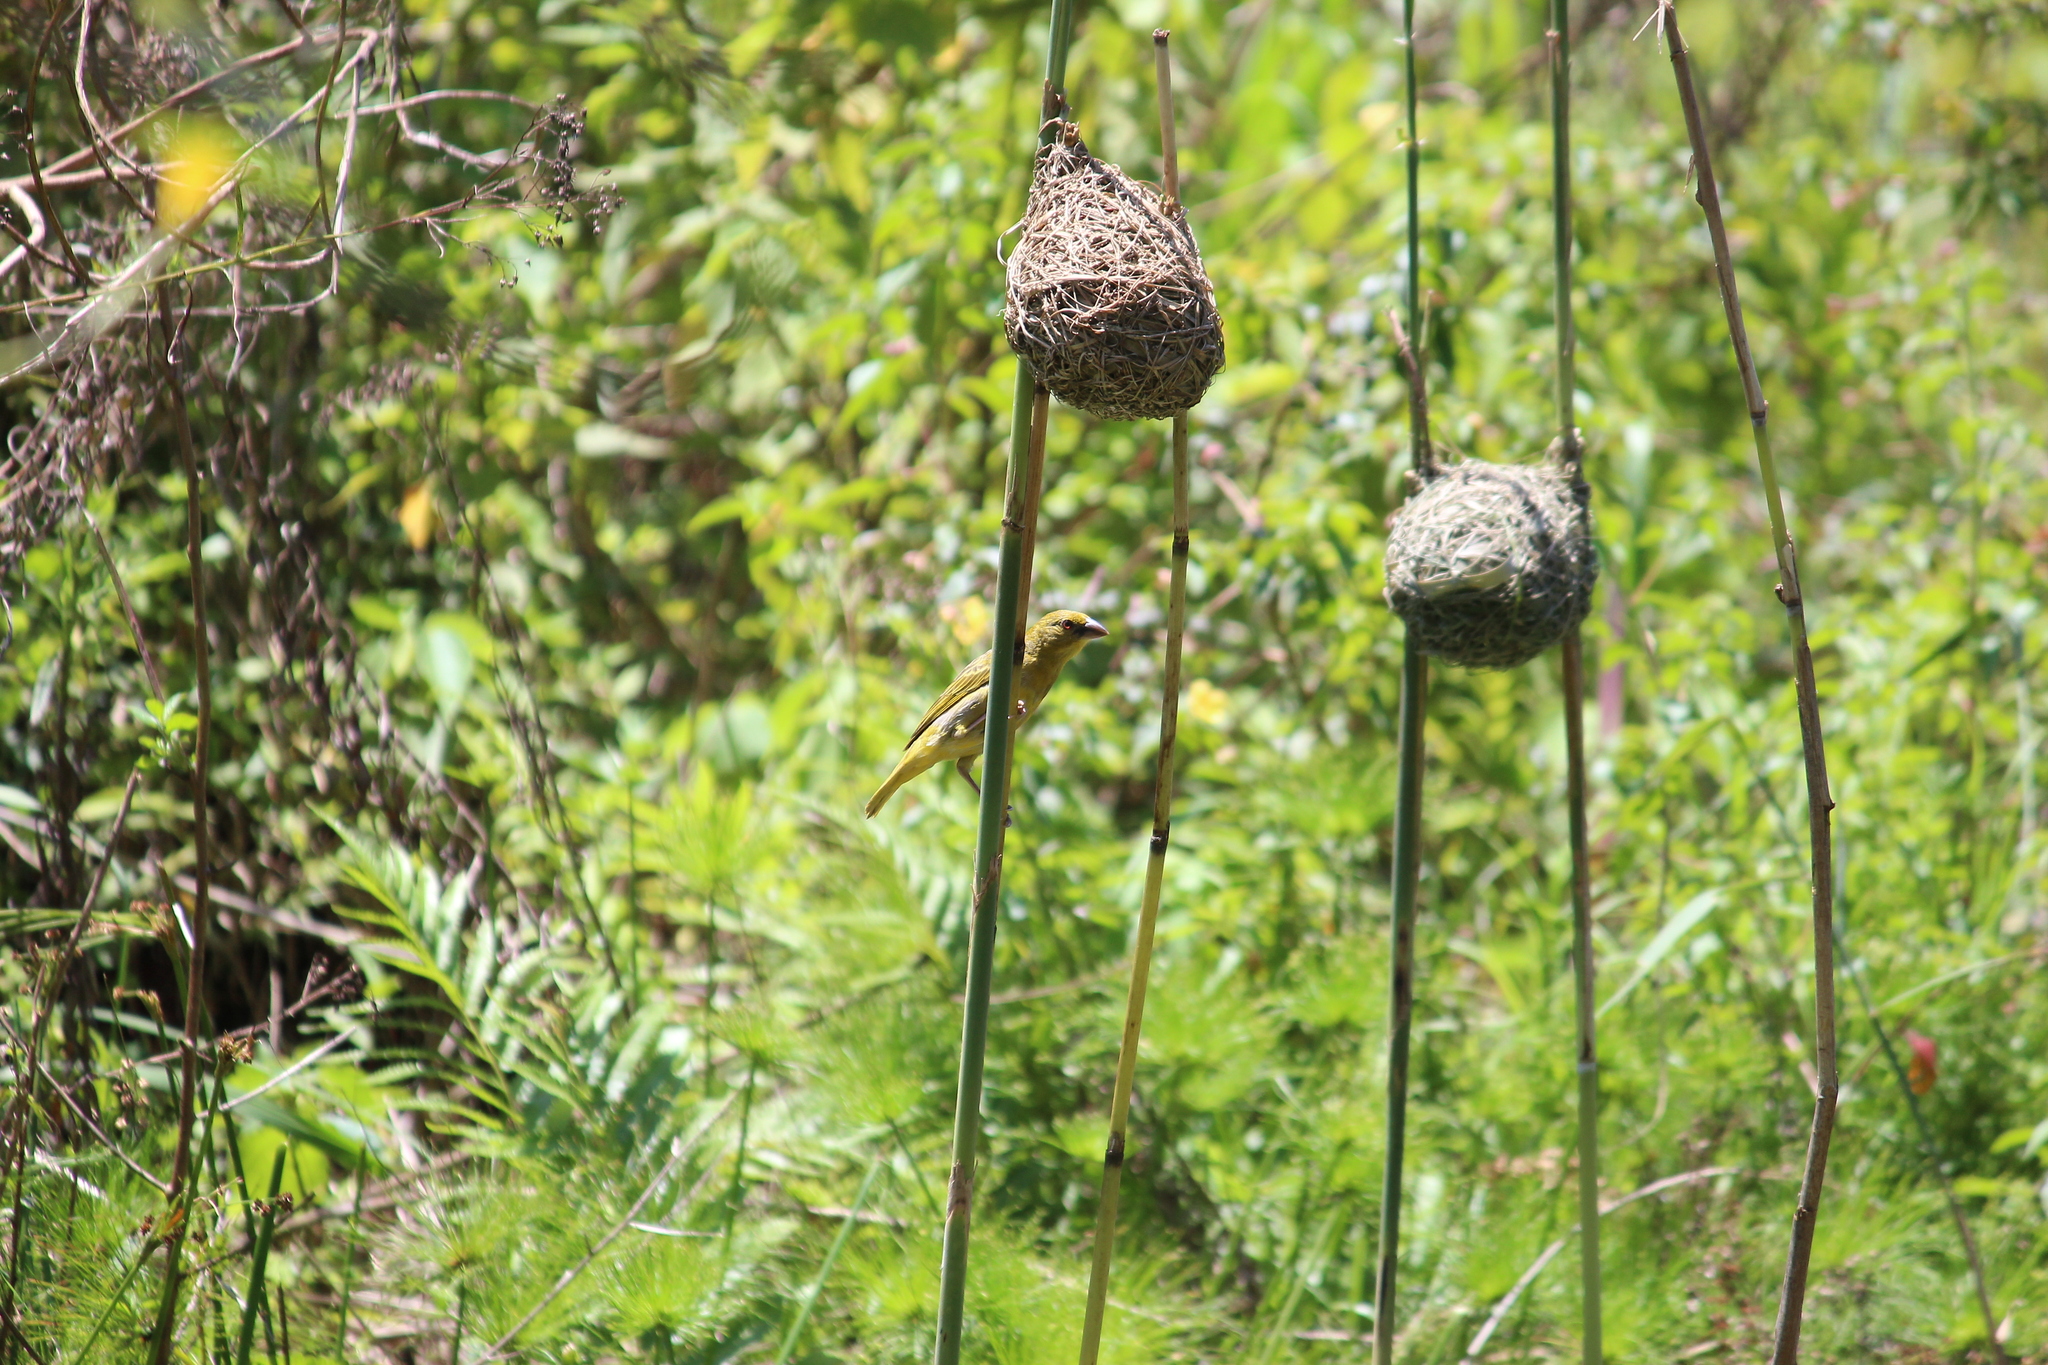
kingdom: Animalia
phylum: Chordata
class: Aves
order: Passeriformes
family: Ploceidae
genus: Ploceus
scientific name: Ploceus subaureus
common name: Yellow weaver
